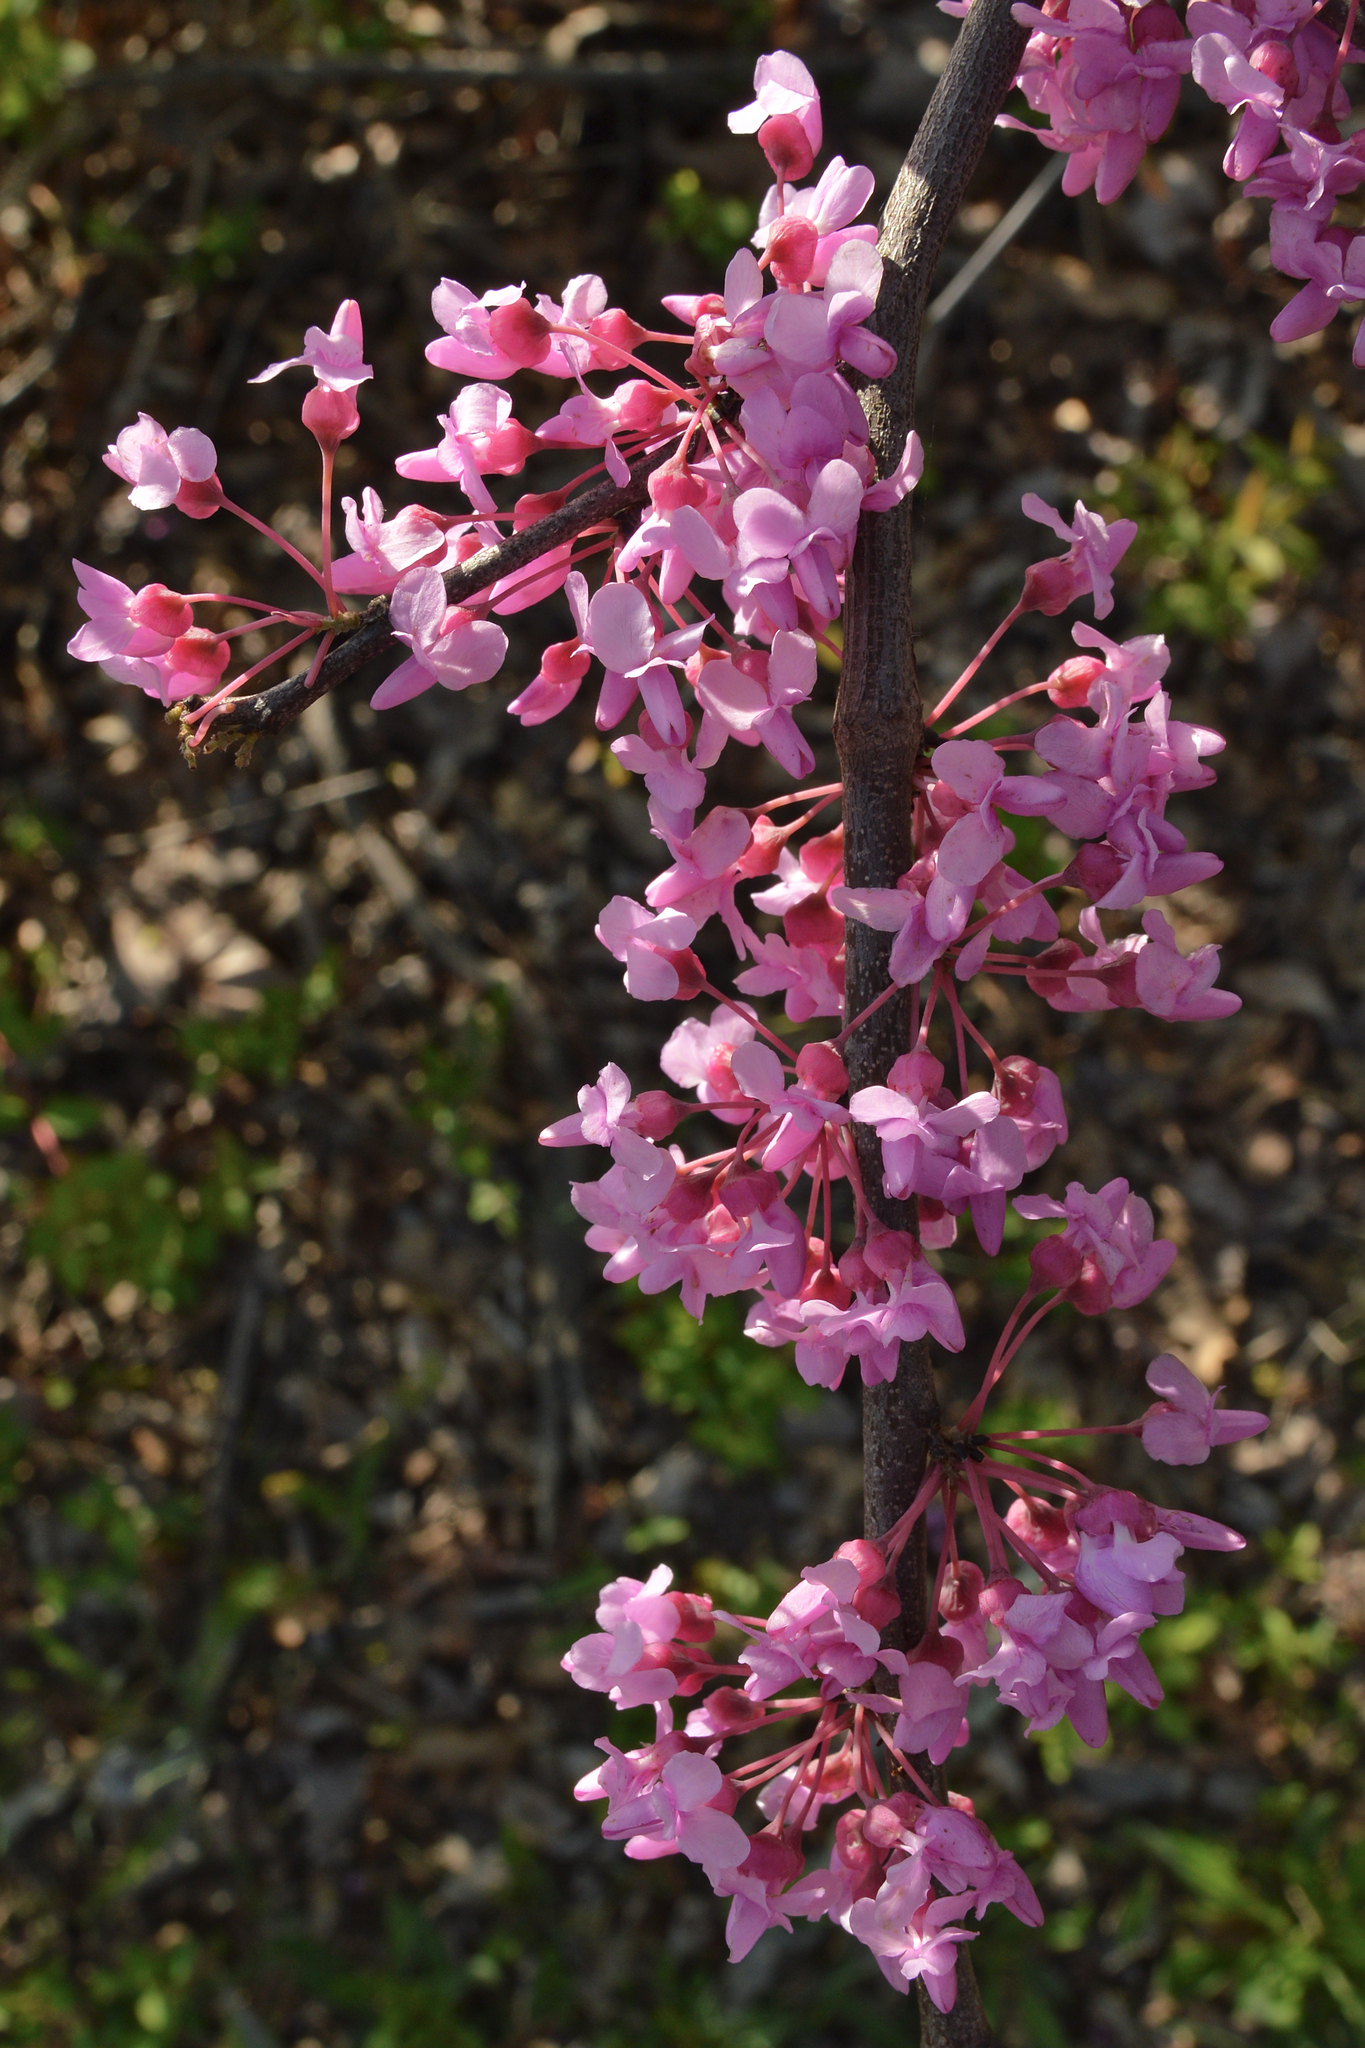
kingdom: Plantae
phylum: Tracheophyta
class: Magnoliopsida
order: Fabales
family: Fabaceae
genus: Cercis
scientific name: Cercis canadensis
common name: Eastern redbud
